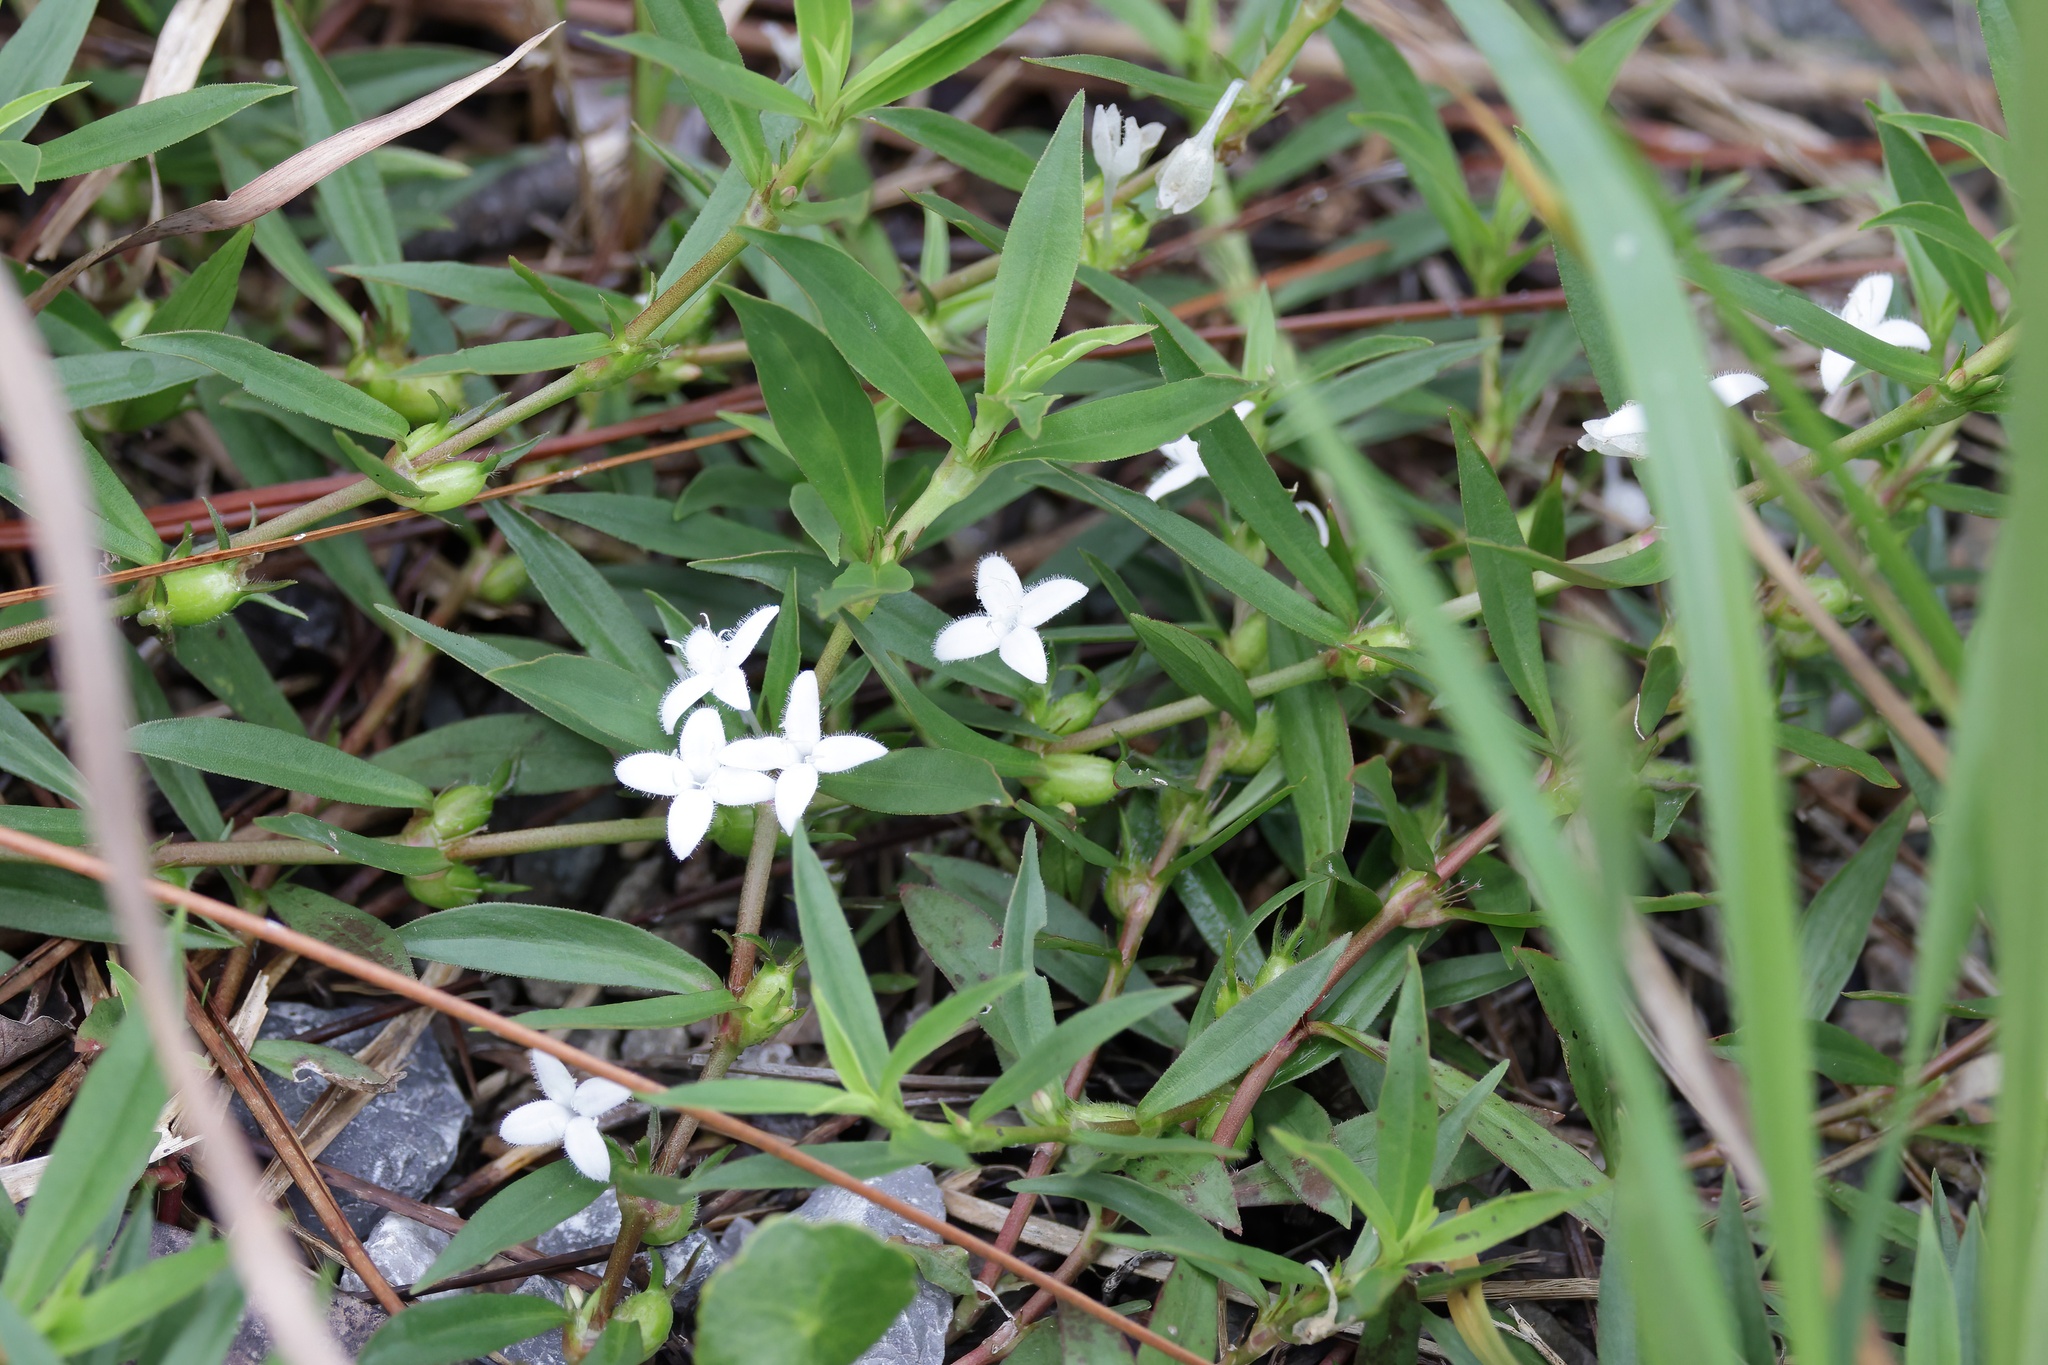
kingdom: Plantae
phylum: Tracheophyta
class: Magnoliopsida
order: Gentianales
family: Rubiaceae
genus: Diodia
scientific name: Diodia virginiana
